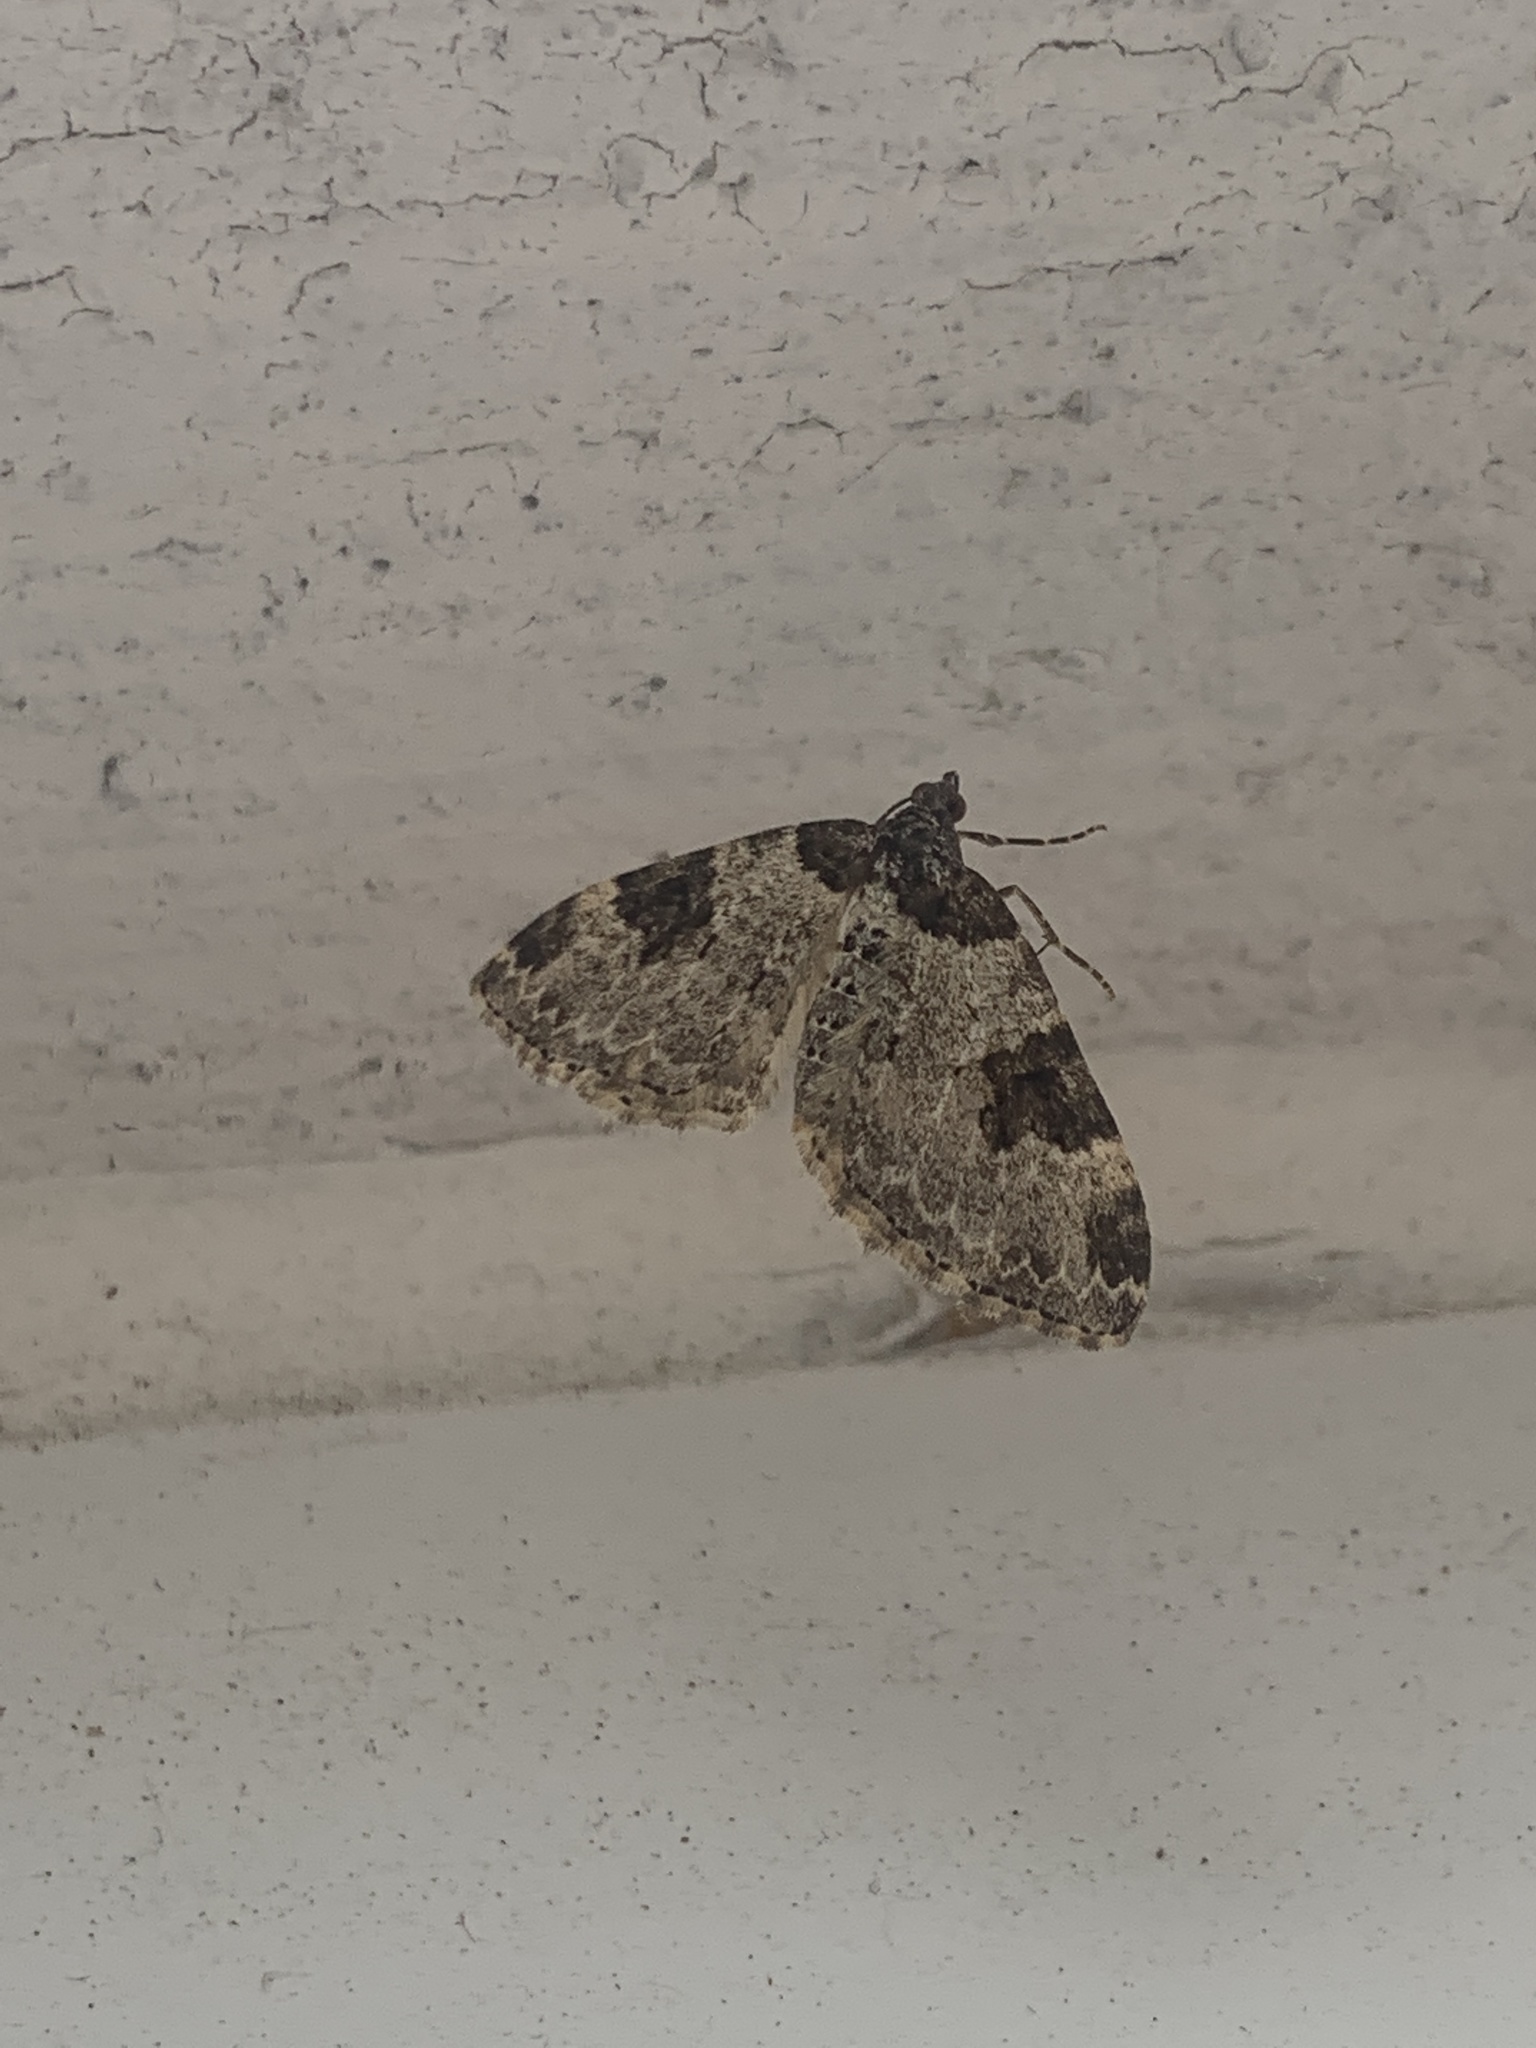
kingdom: Animalia
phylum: Arthropoda
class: Insecta
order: Lepidoptera
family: Geometridae
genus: Xanthorhoe
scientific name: Xanthorhoe fluctuata
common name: Garden carpet
